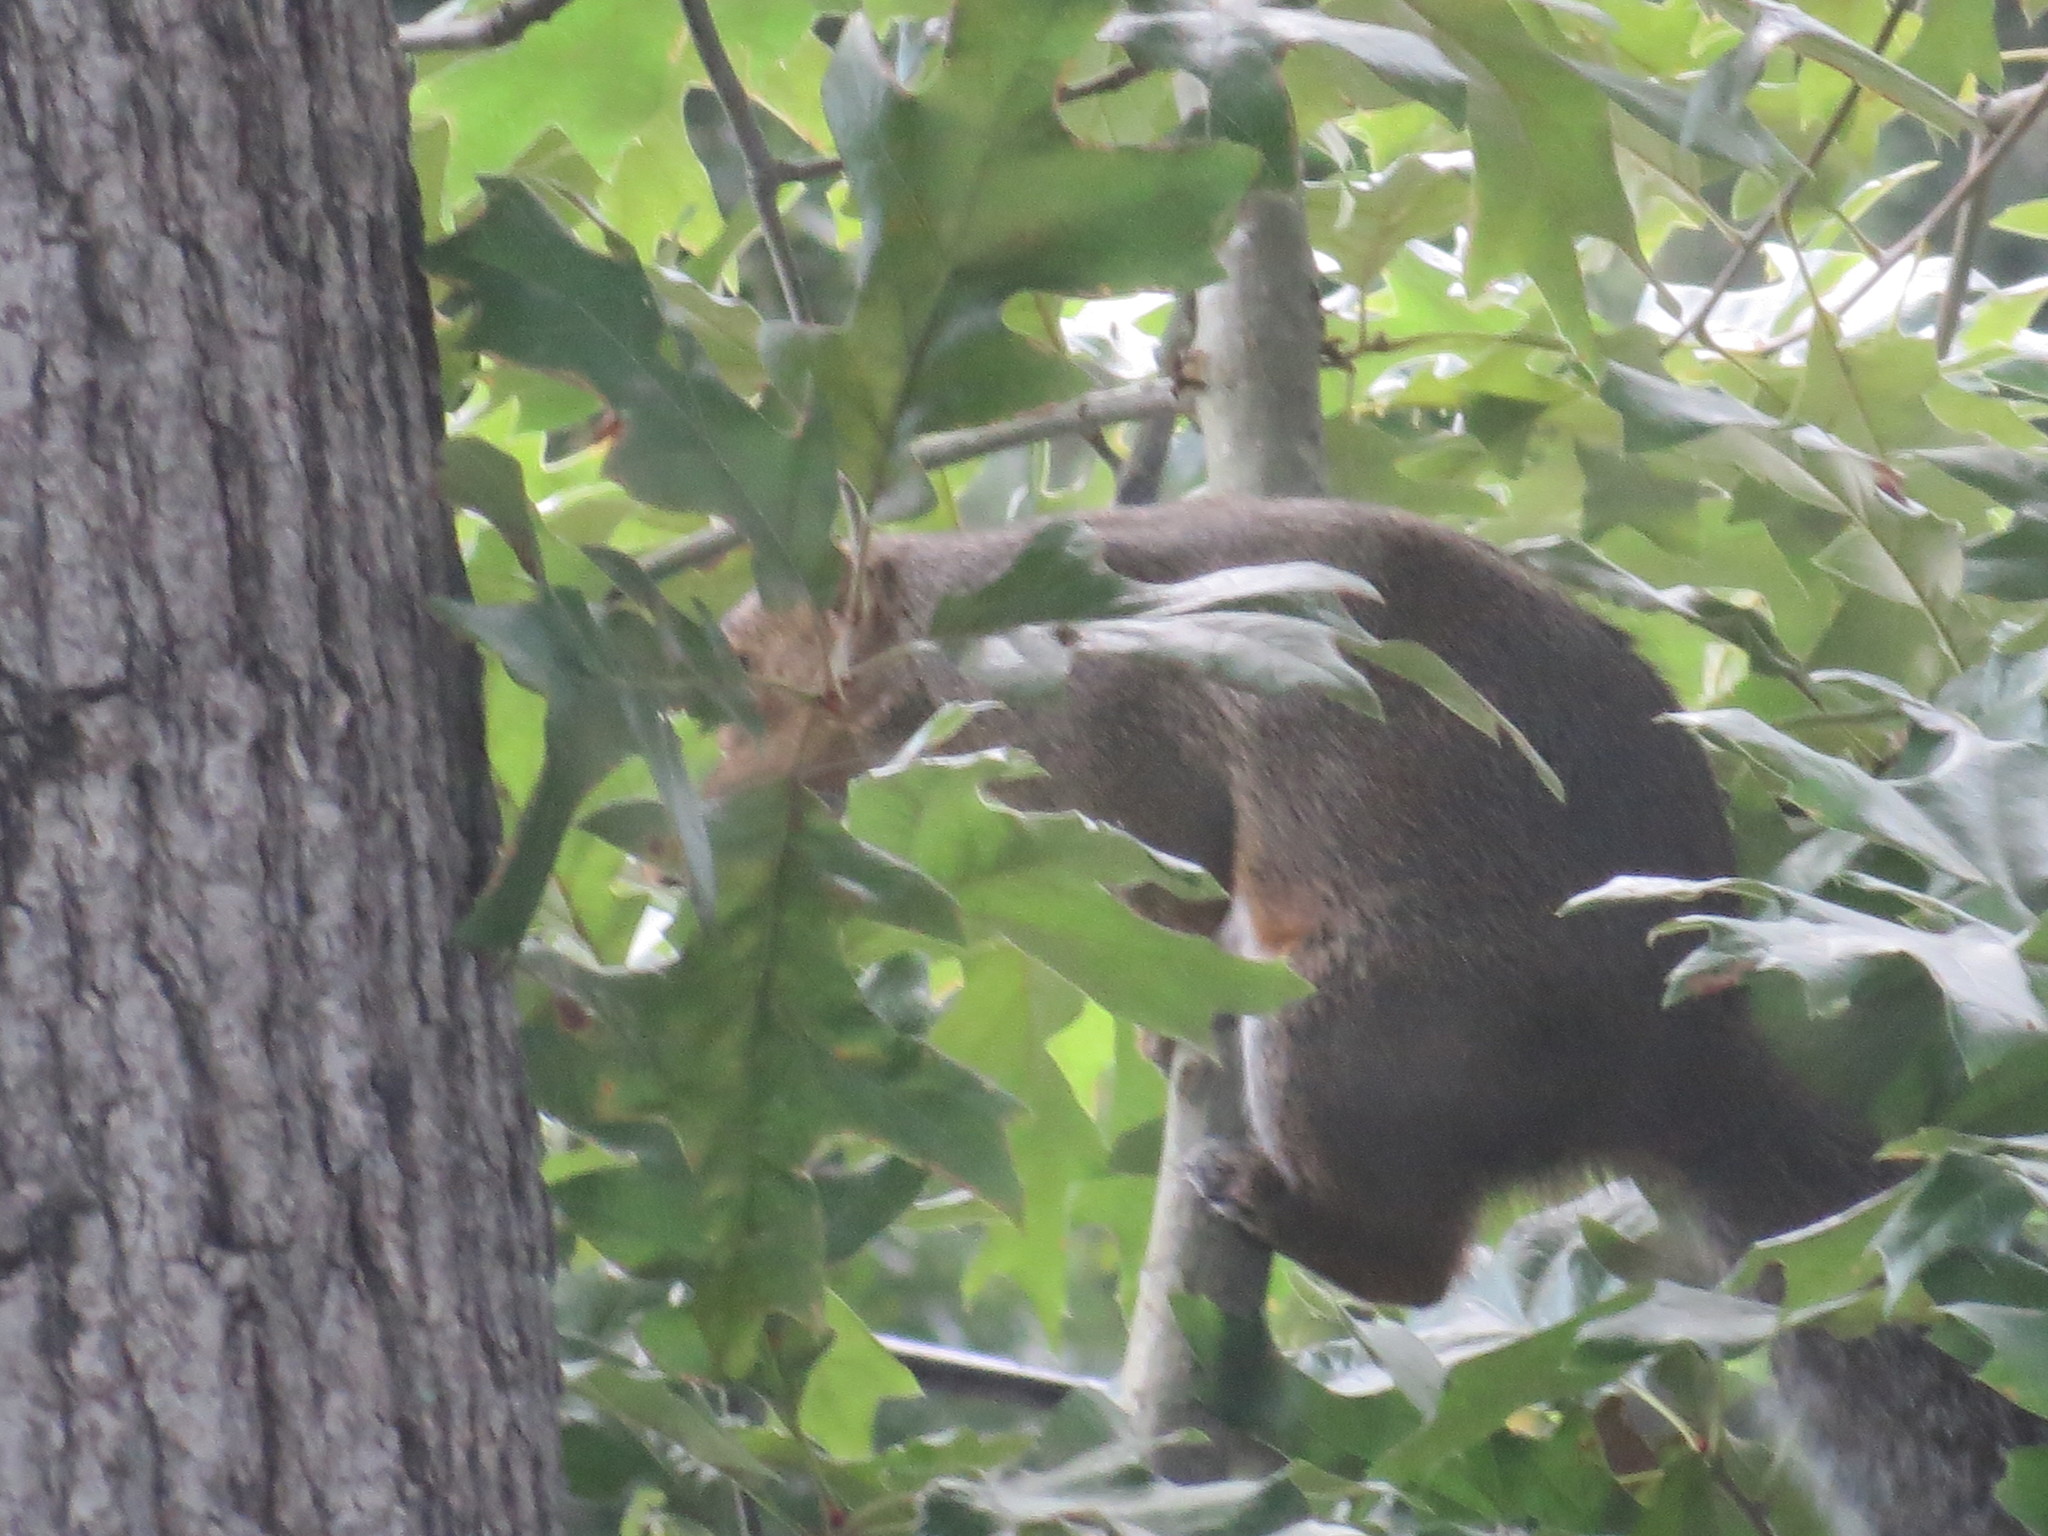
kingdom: Animalia
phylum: Chordata
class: Mammalia
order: Rodentia
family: Sciuridae
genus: Sciurus
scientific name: Sciurus carolinensis
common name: Eastern gray squirrel
